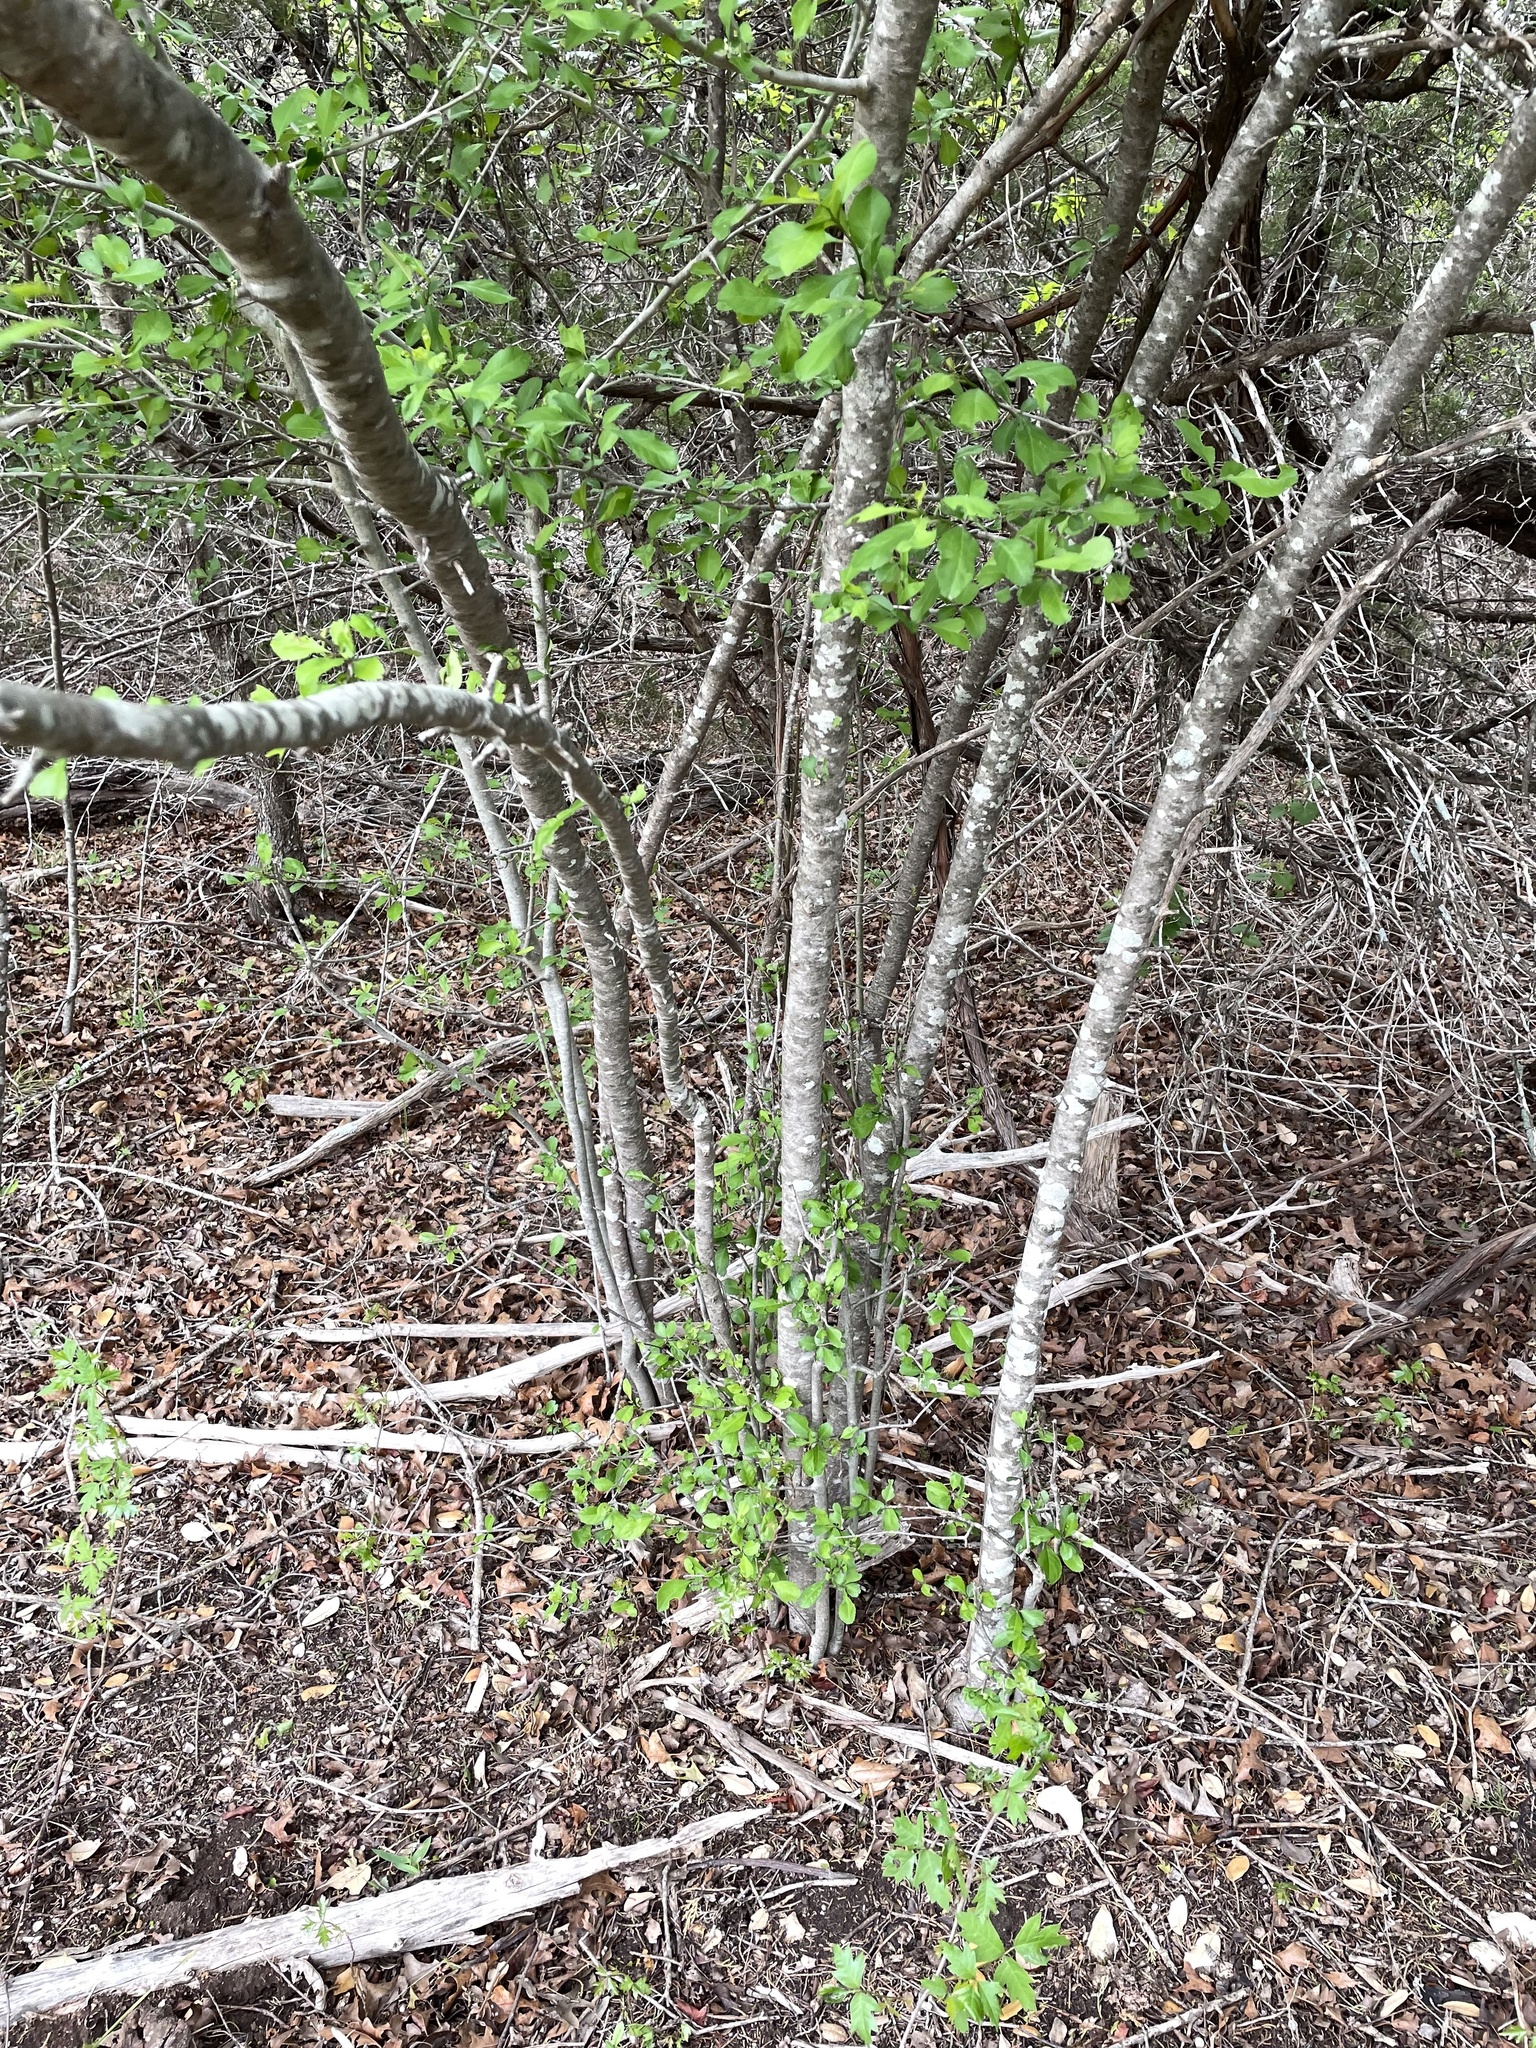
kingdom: Plantae
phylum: Tracheophyta
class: Magnoliopsida
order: Aquifoliales
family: Aquifoliaceae
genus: Ilex
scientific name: Ilex decidua
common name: Possum-haw
